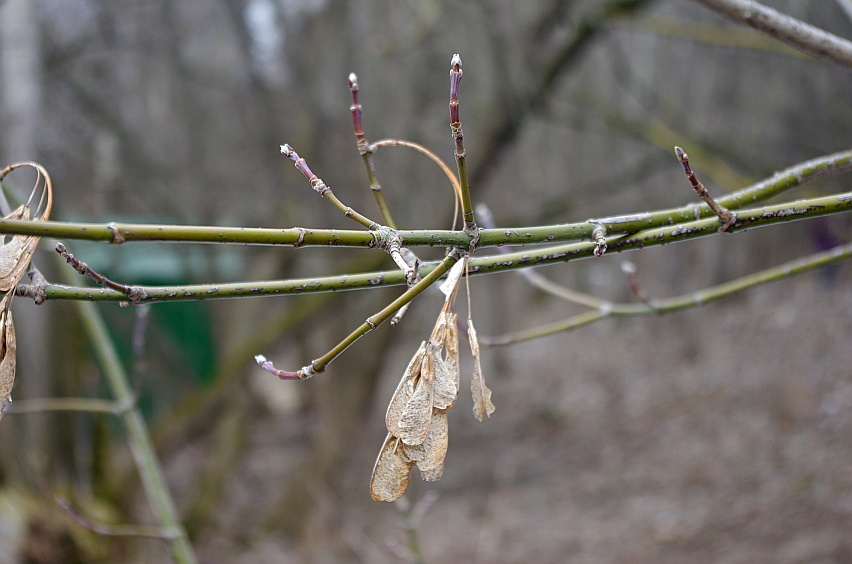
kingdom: Plantae
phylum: Tracheophyta
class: Magnoliopsida
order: Sapindales
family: Sapindaceae
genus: Acer
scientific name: Acer negundo
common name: Ashleaf maple
